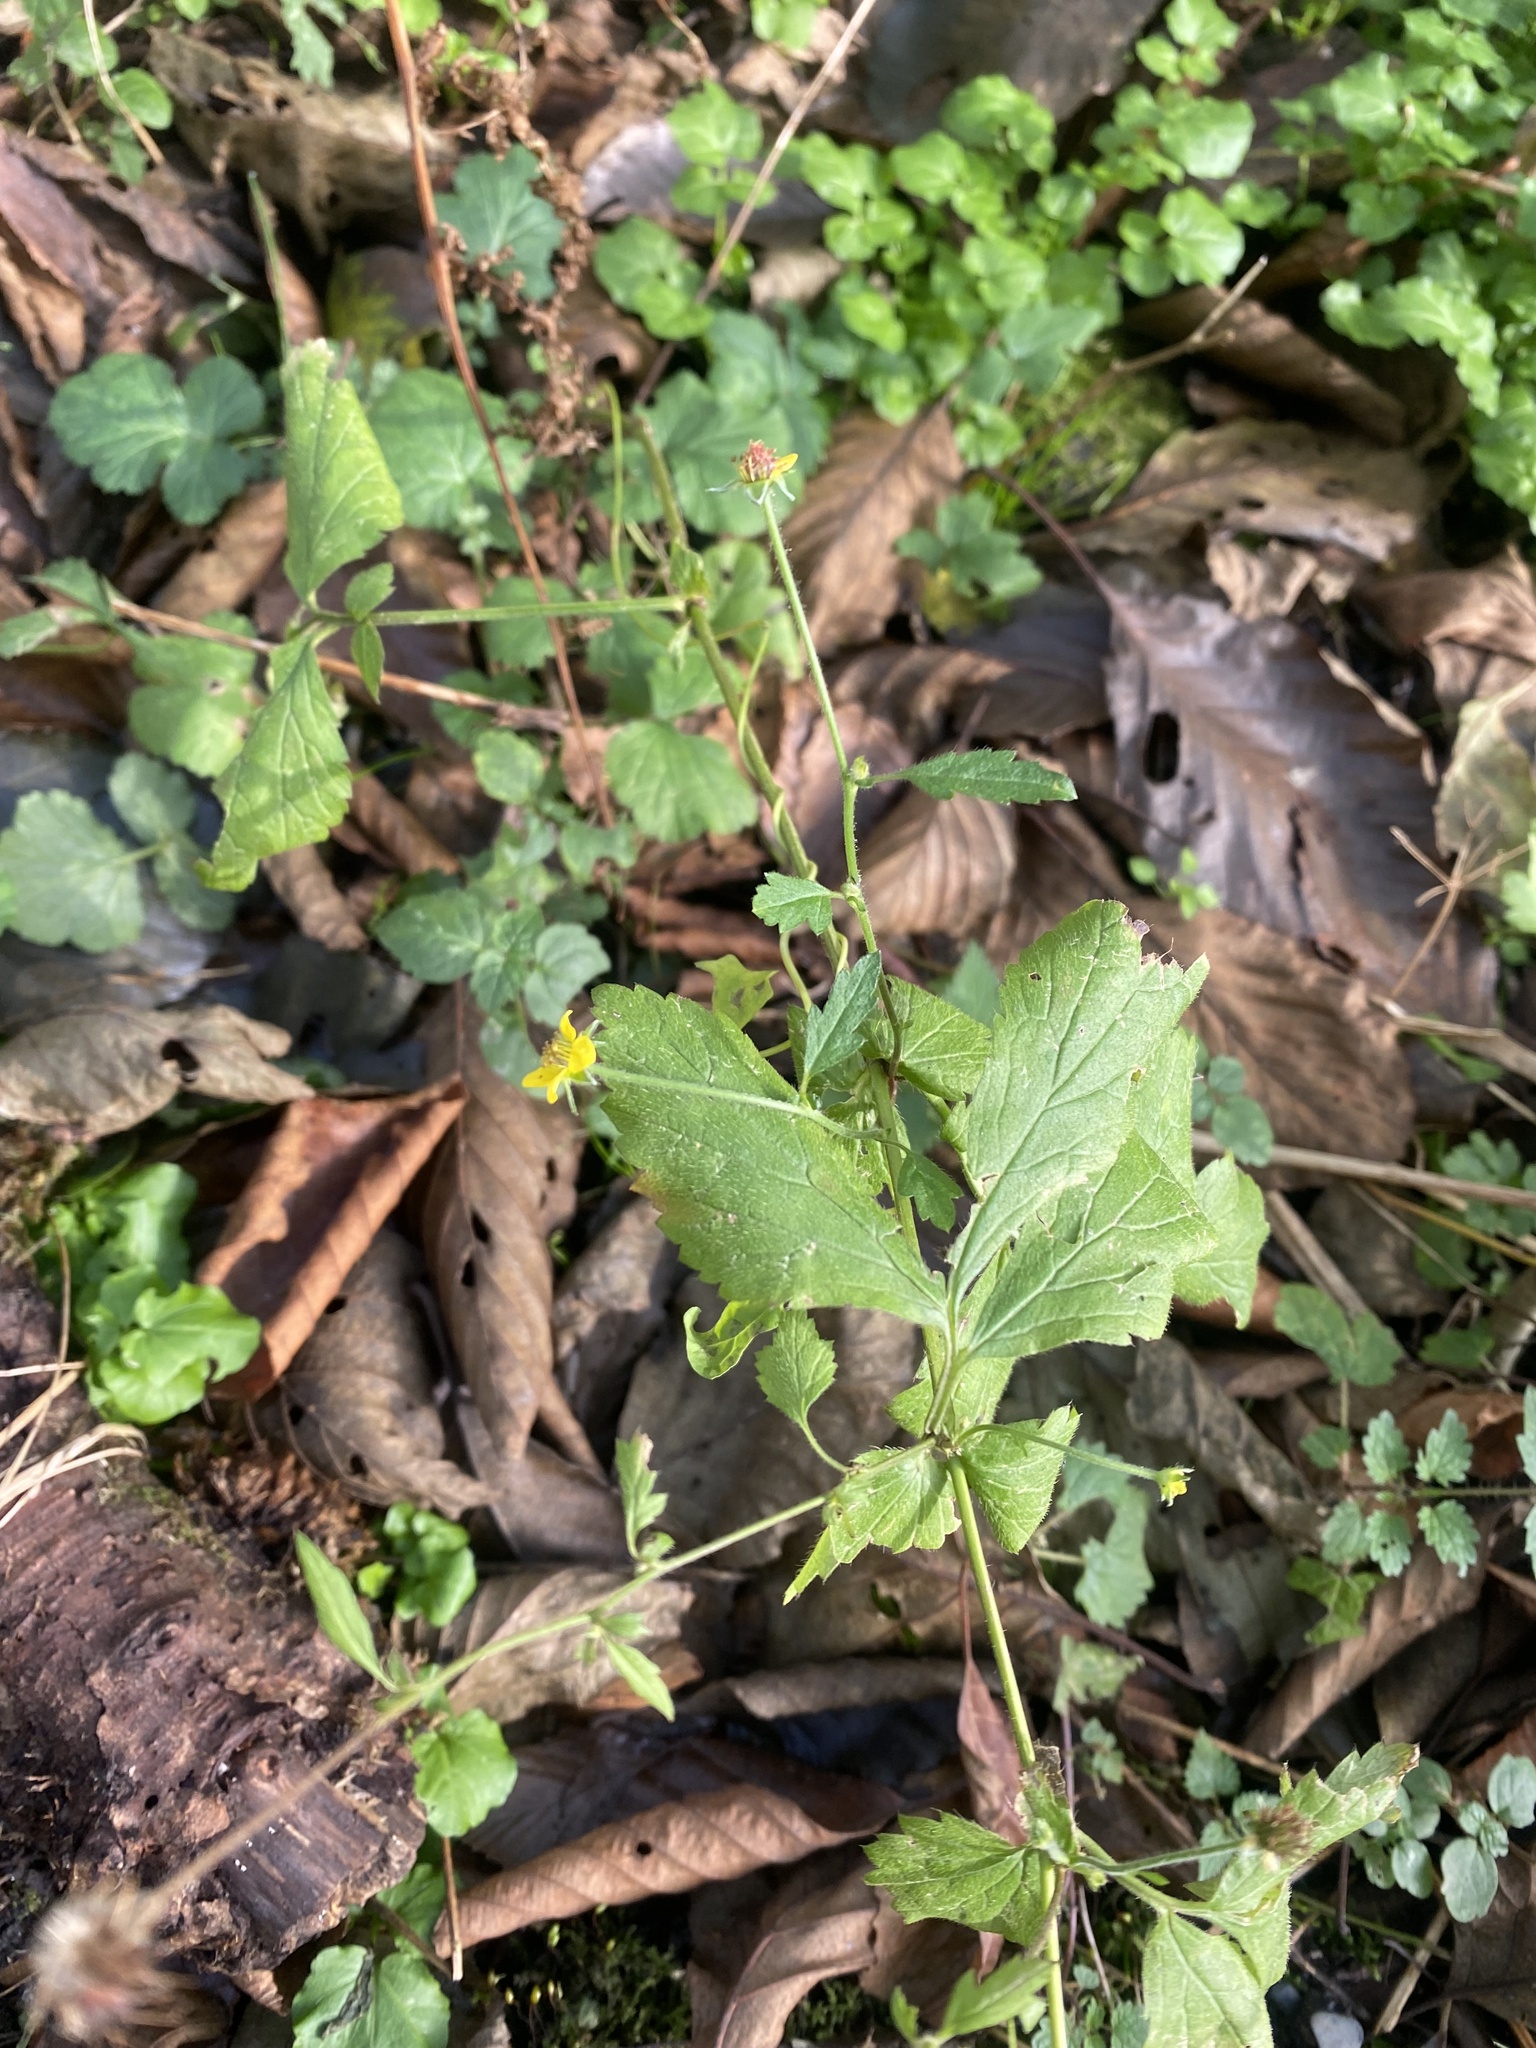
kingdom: Plantae
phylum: Tracheophyta
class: Magnoliopsida
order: Rosales
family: Rosaceae
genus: Geum
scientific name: Geum urbanum
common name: Wood avens
